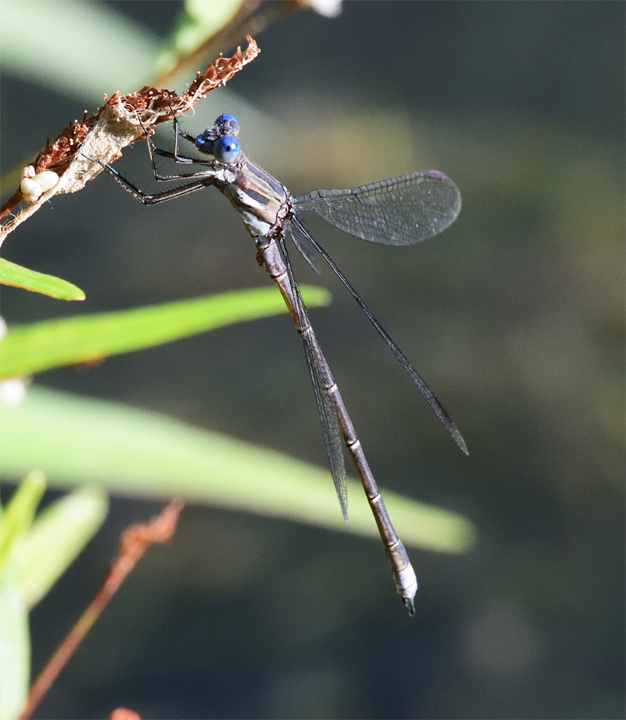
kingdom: Animalia
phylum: Arthropoda
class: Insecta
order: Odonata
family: Lestidae
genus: Archilestes
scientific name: Archilestes californicus
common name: California spreadwing
